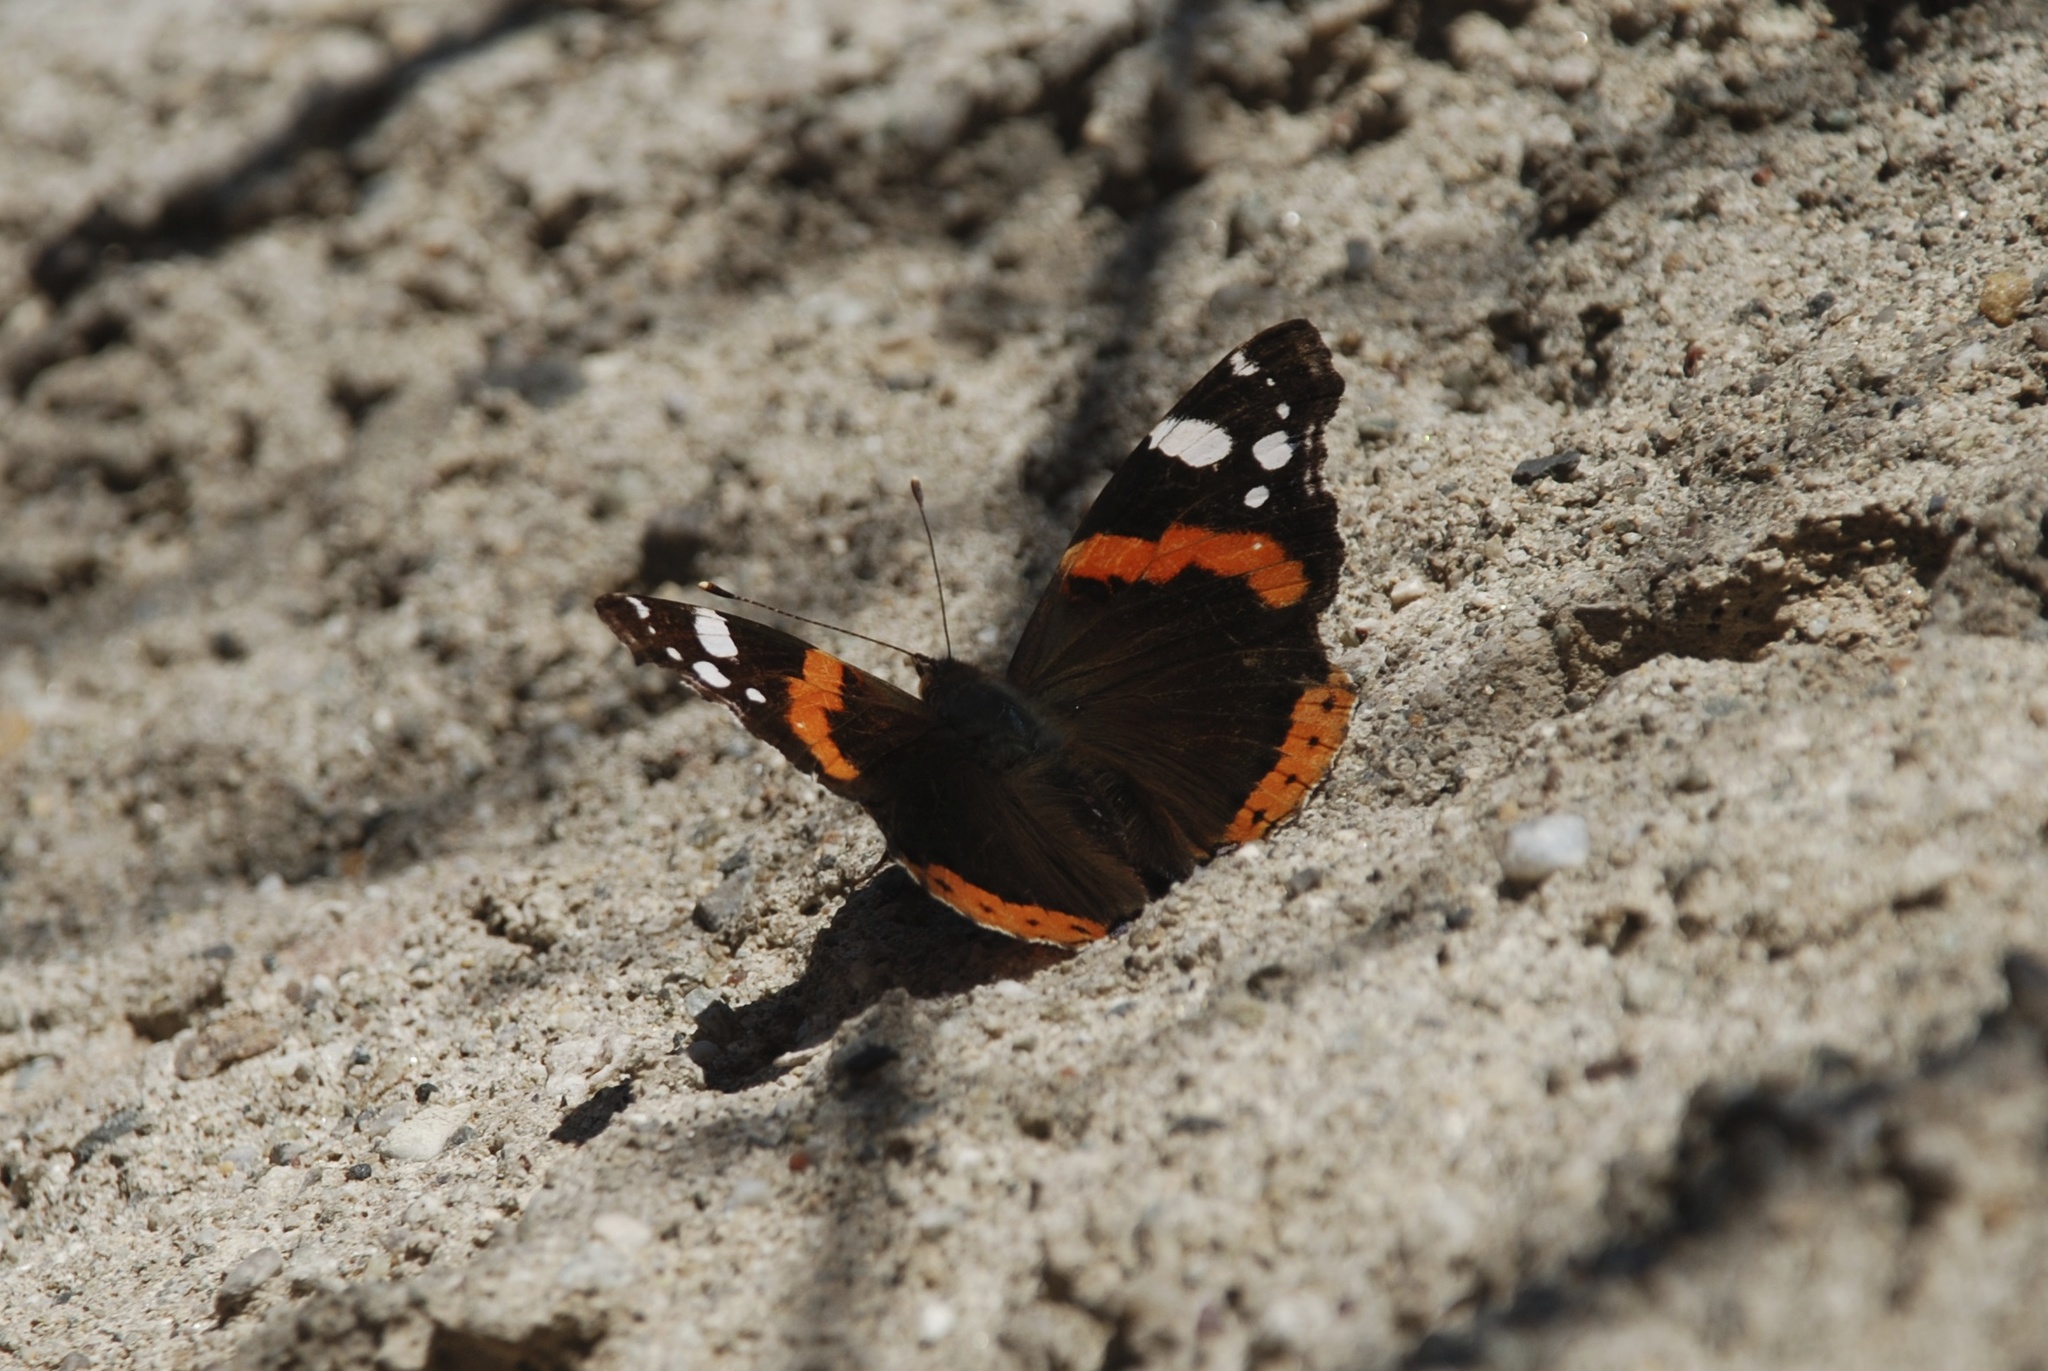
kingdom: Animalia
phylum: Arthropoda
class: Insecta
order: Lepidoptera
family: Nymphalidae
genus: Vanessa
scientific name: Vanessa atalanta
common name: Red admiral
